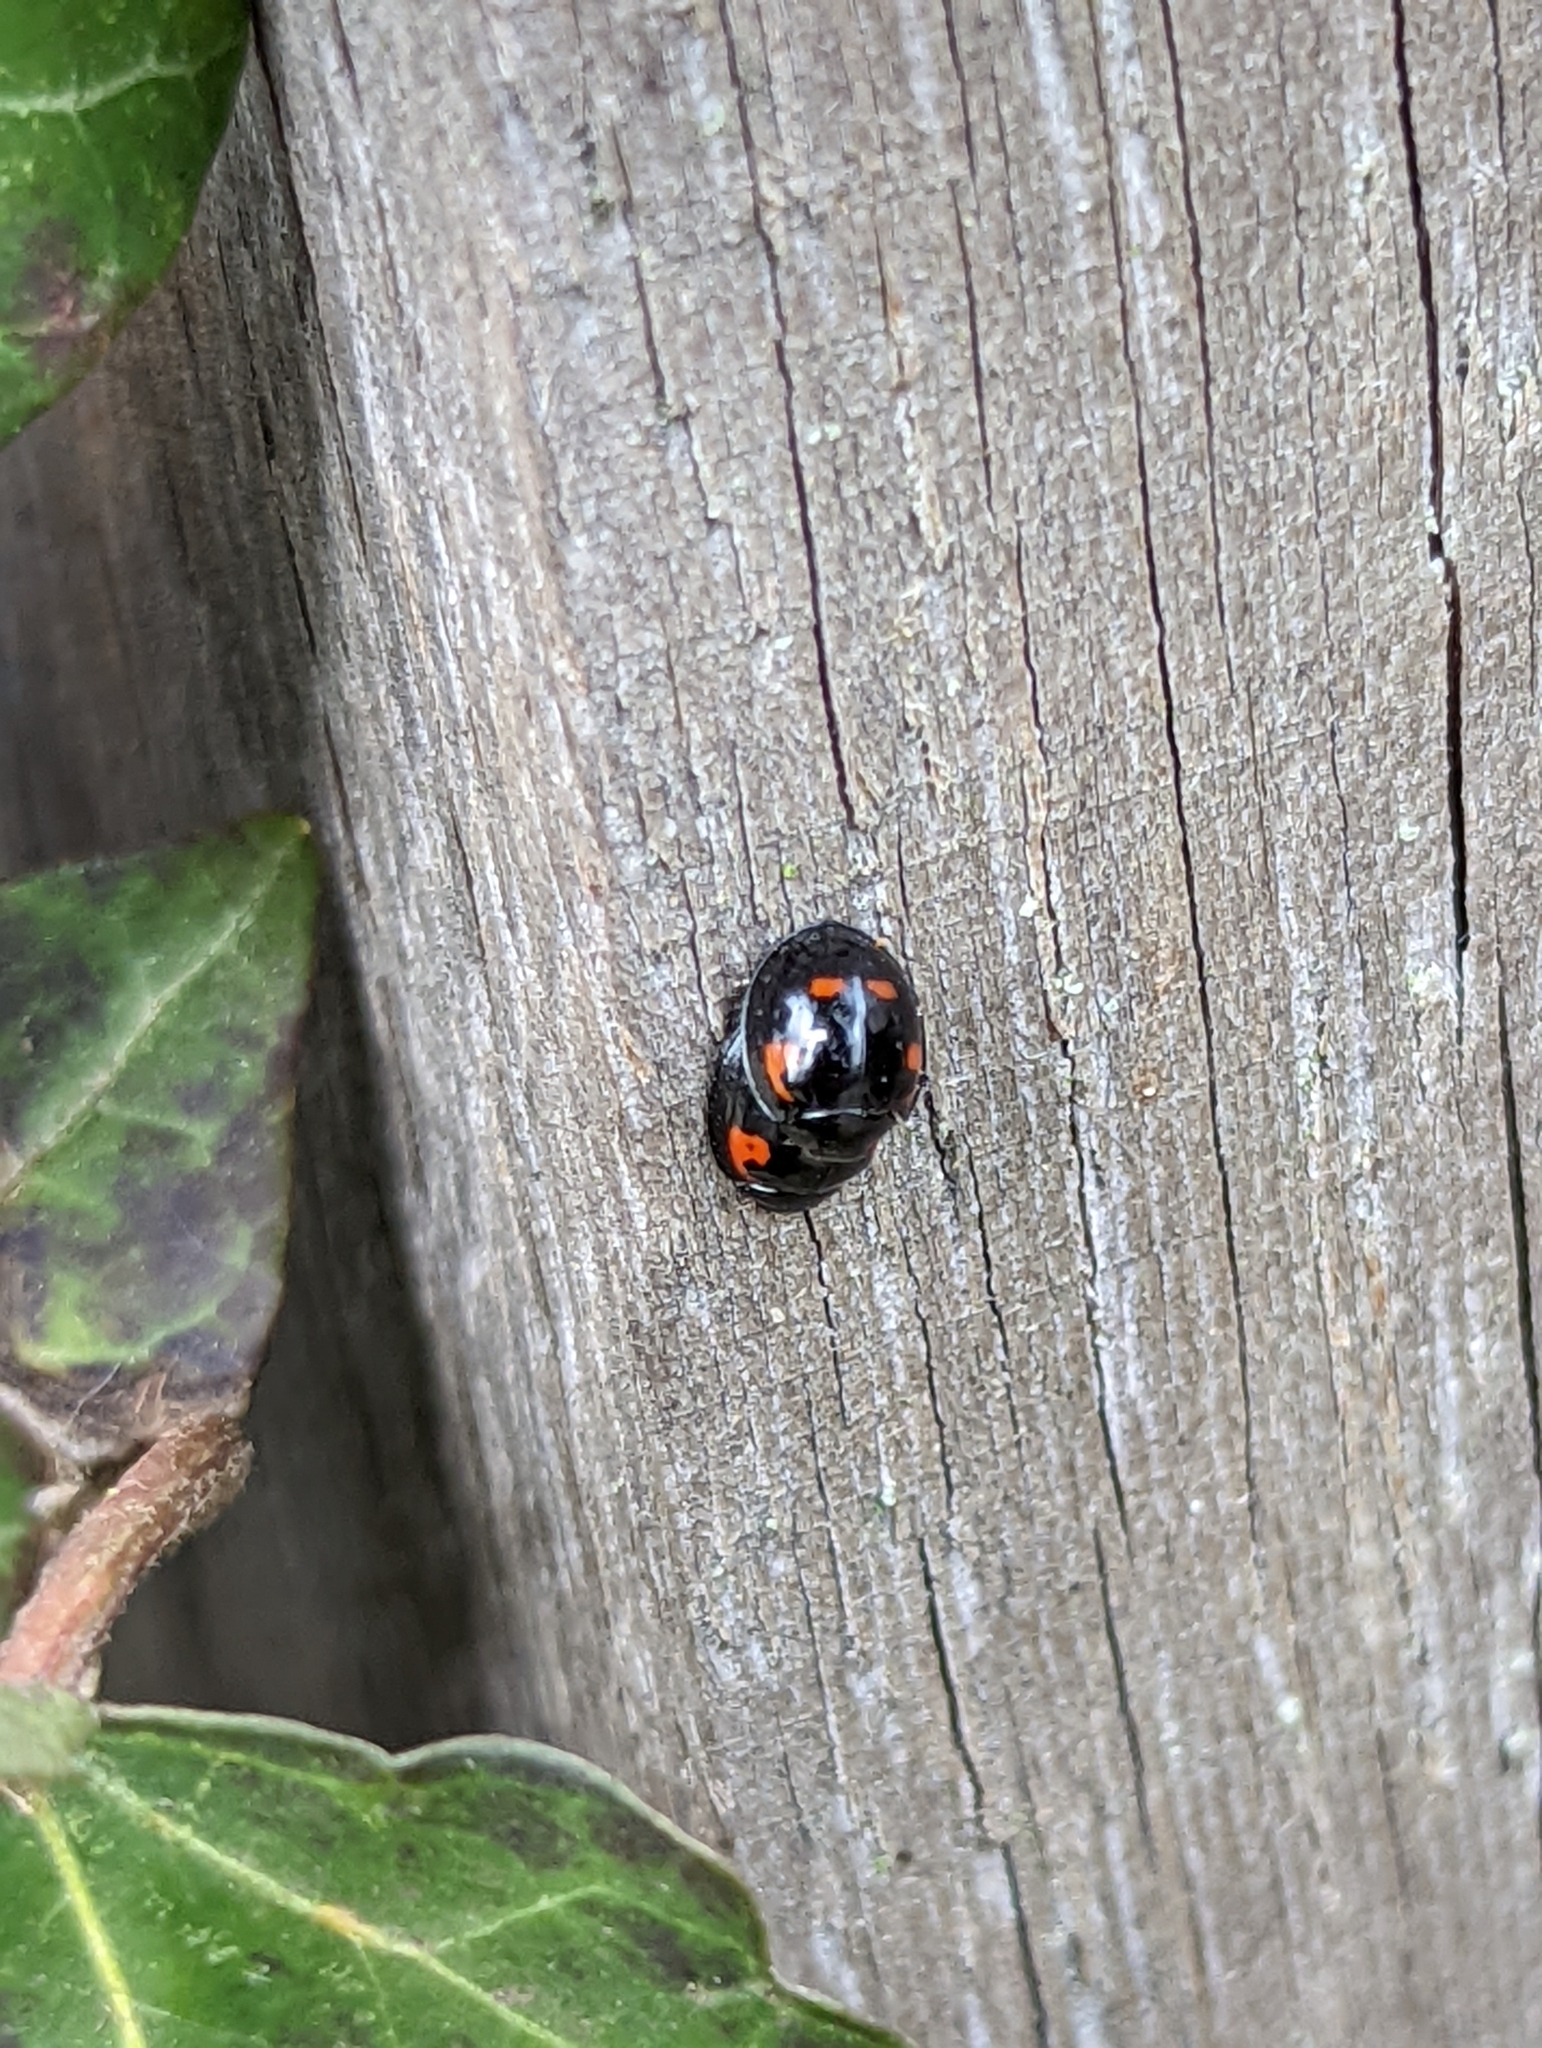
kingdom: Animalia
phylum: Arthropoda
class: Insecta
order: Coleoptera
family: Coccinellidae
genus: Brumus
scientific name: Brumus quadripustulatus
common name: Ladybird beetle
